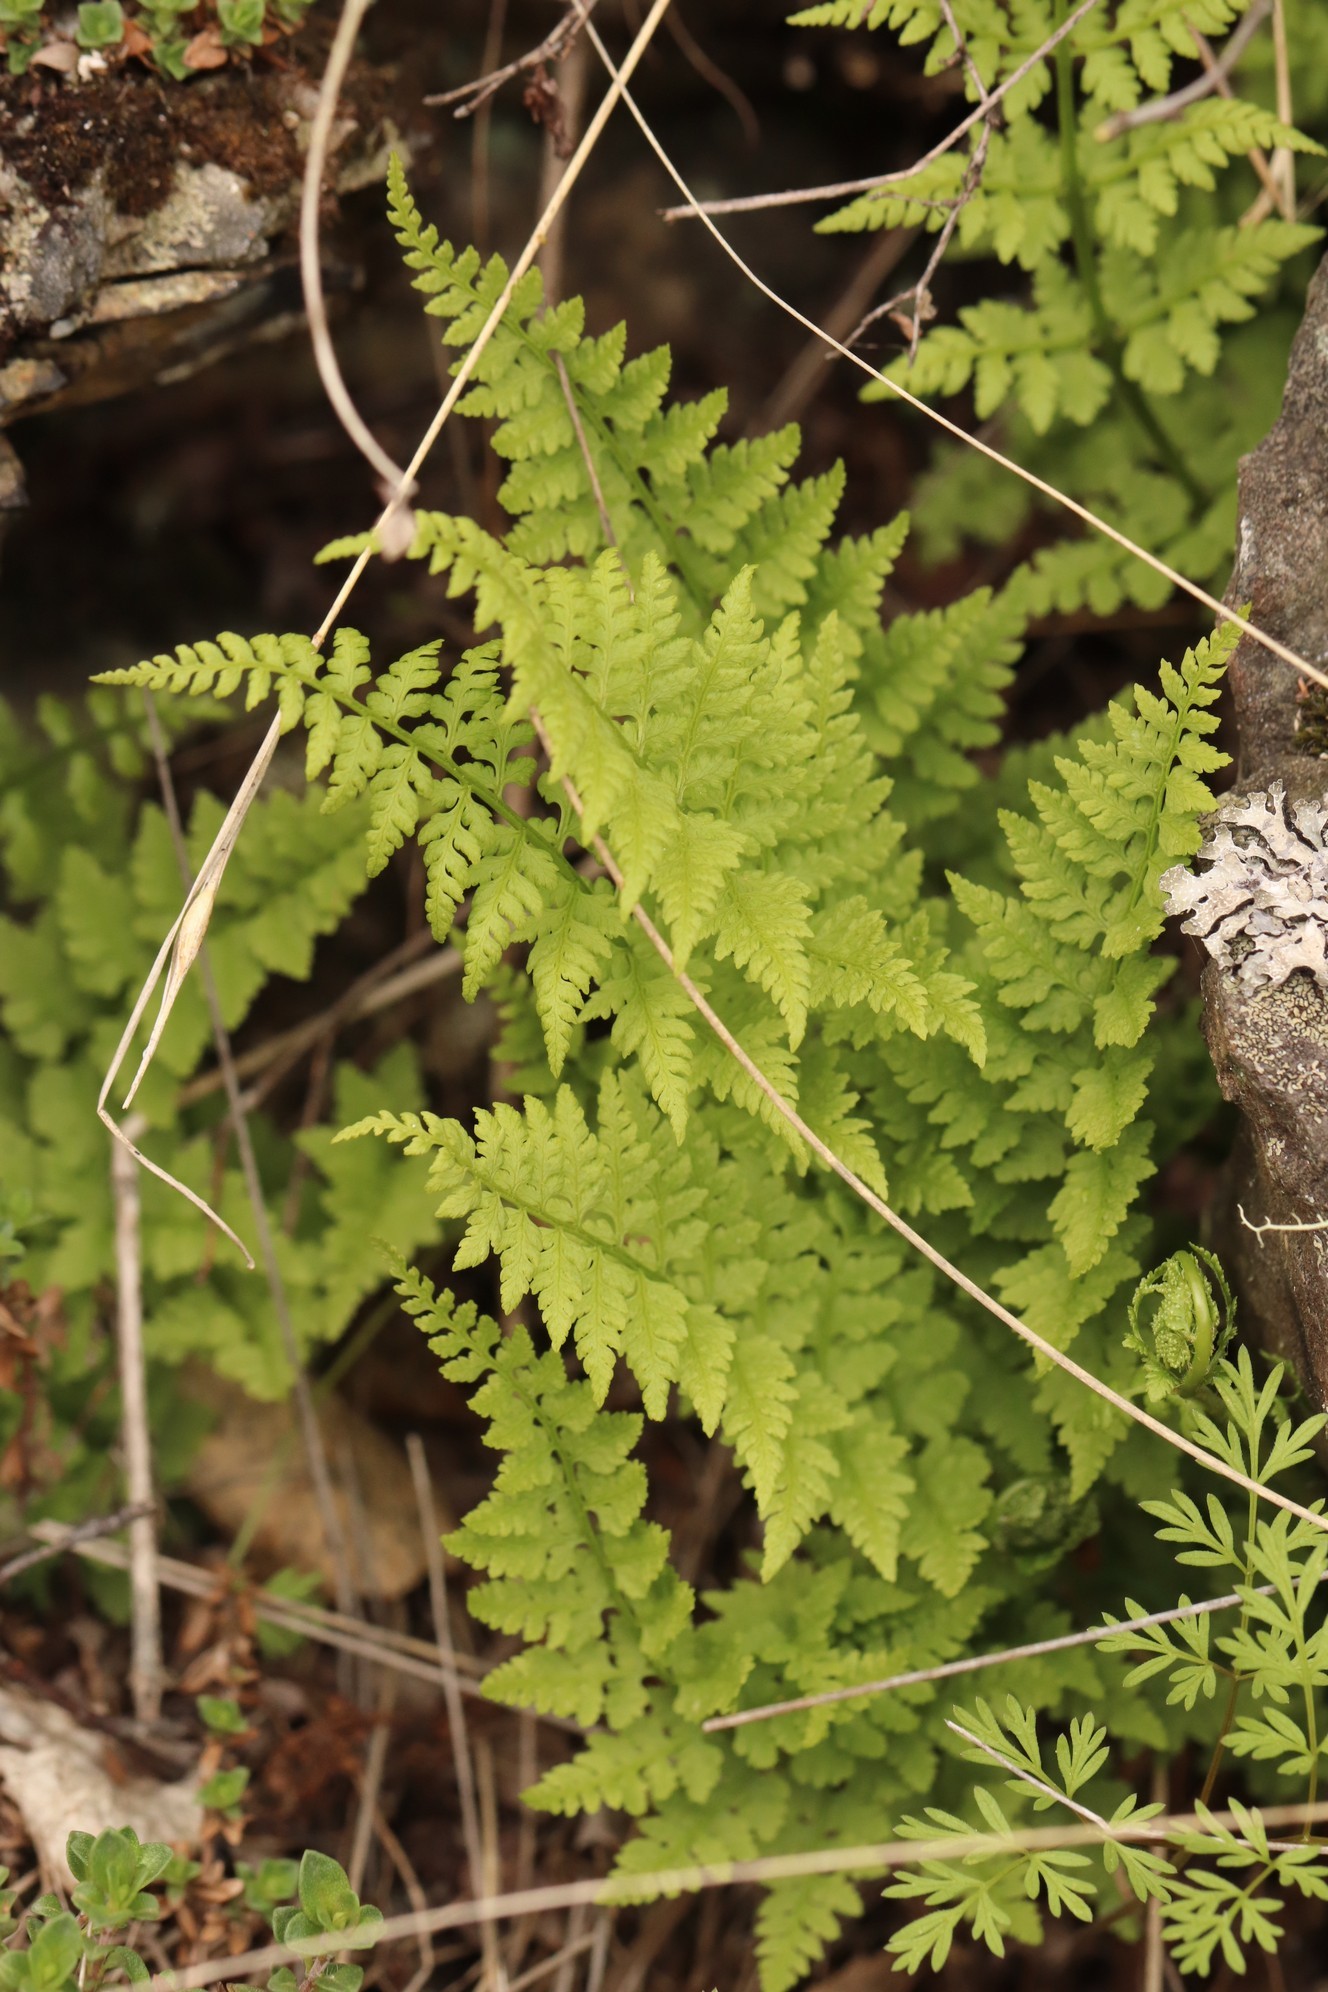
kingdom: Plantae
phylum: Tracheophyta
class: Polypodiopsida
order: Polypodiales
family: Cystopteridaceae
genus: Cystopteris
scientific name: Cystopteris fragilis
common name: Brittle bladder fern
